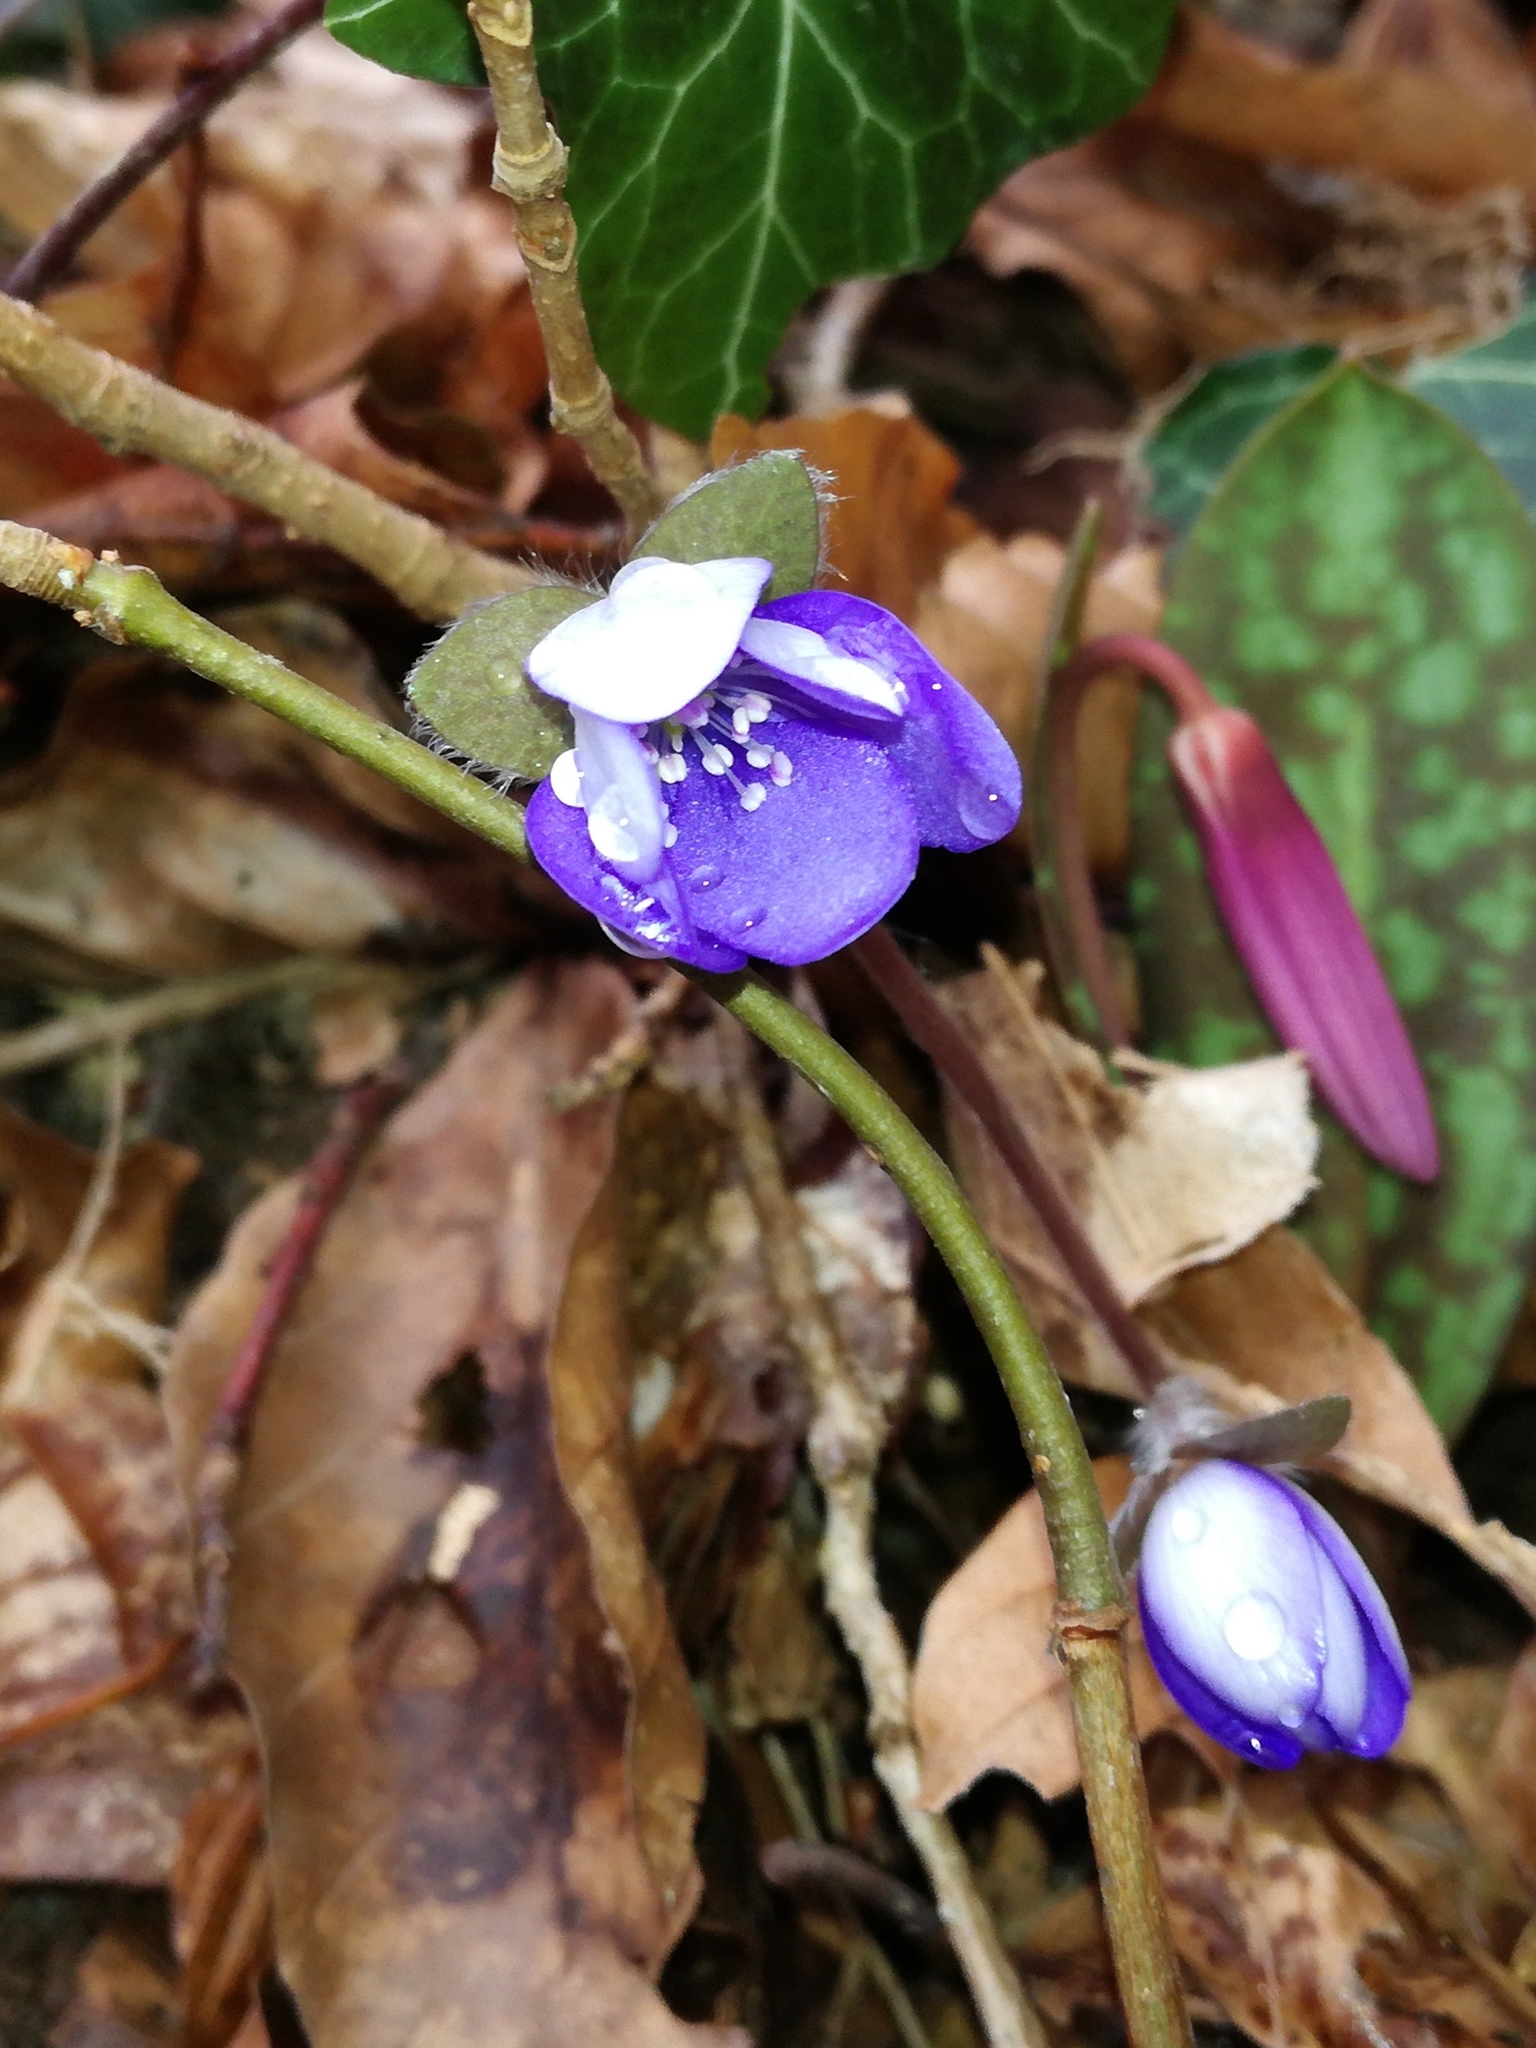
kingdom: Plantae
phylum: Tracheophyta
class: Magnoliopsida
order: Ranunculales
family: Ranunculaceae
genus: Hepatica
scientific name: Hepatica nobilis
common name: Liverleaf
